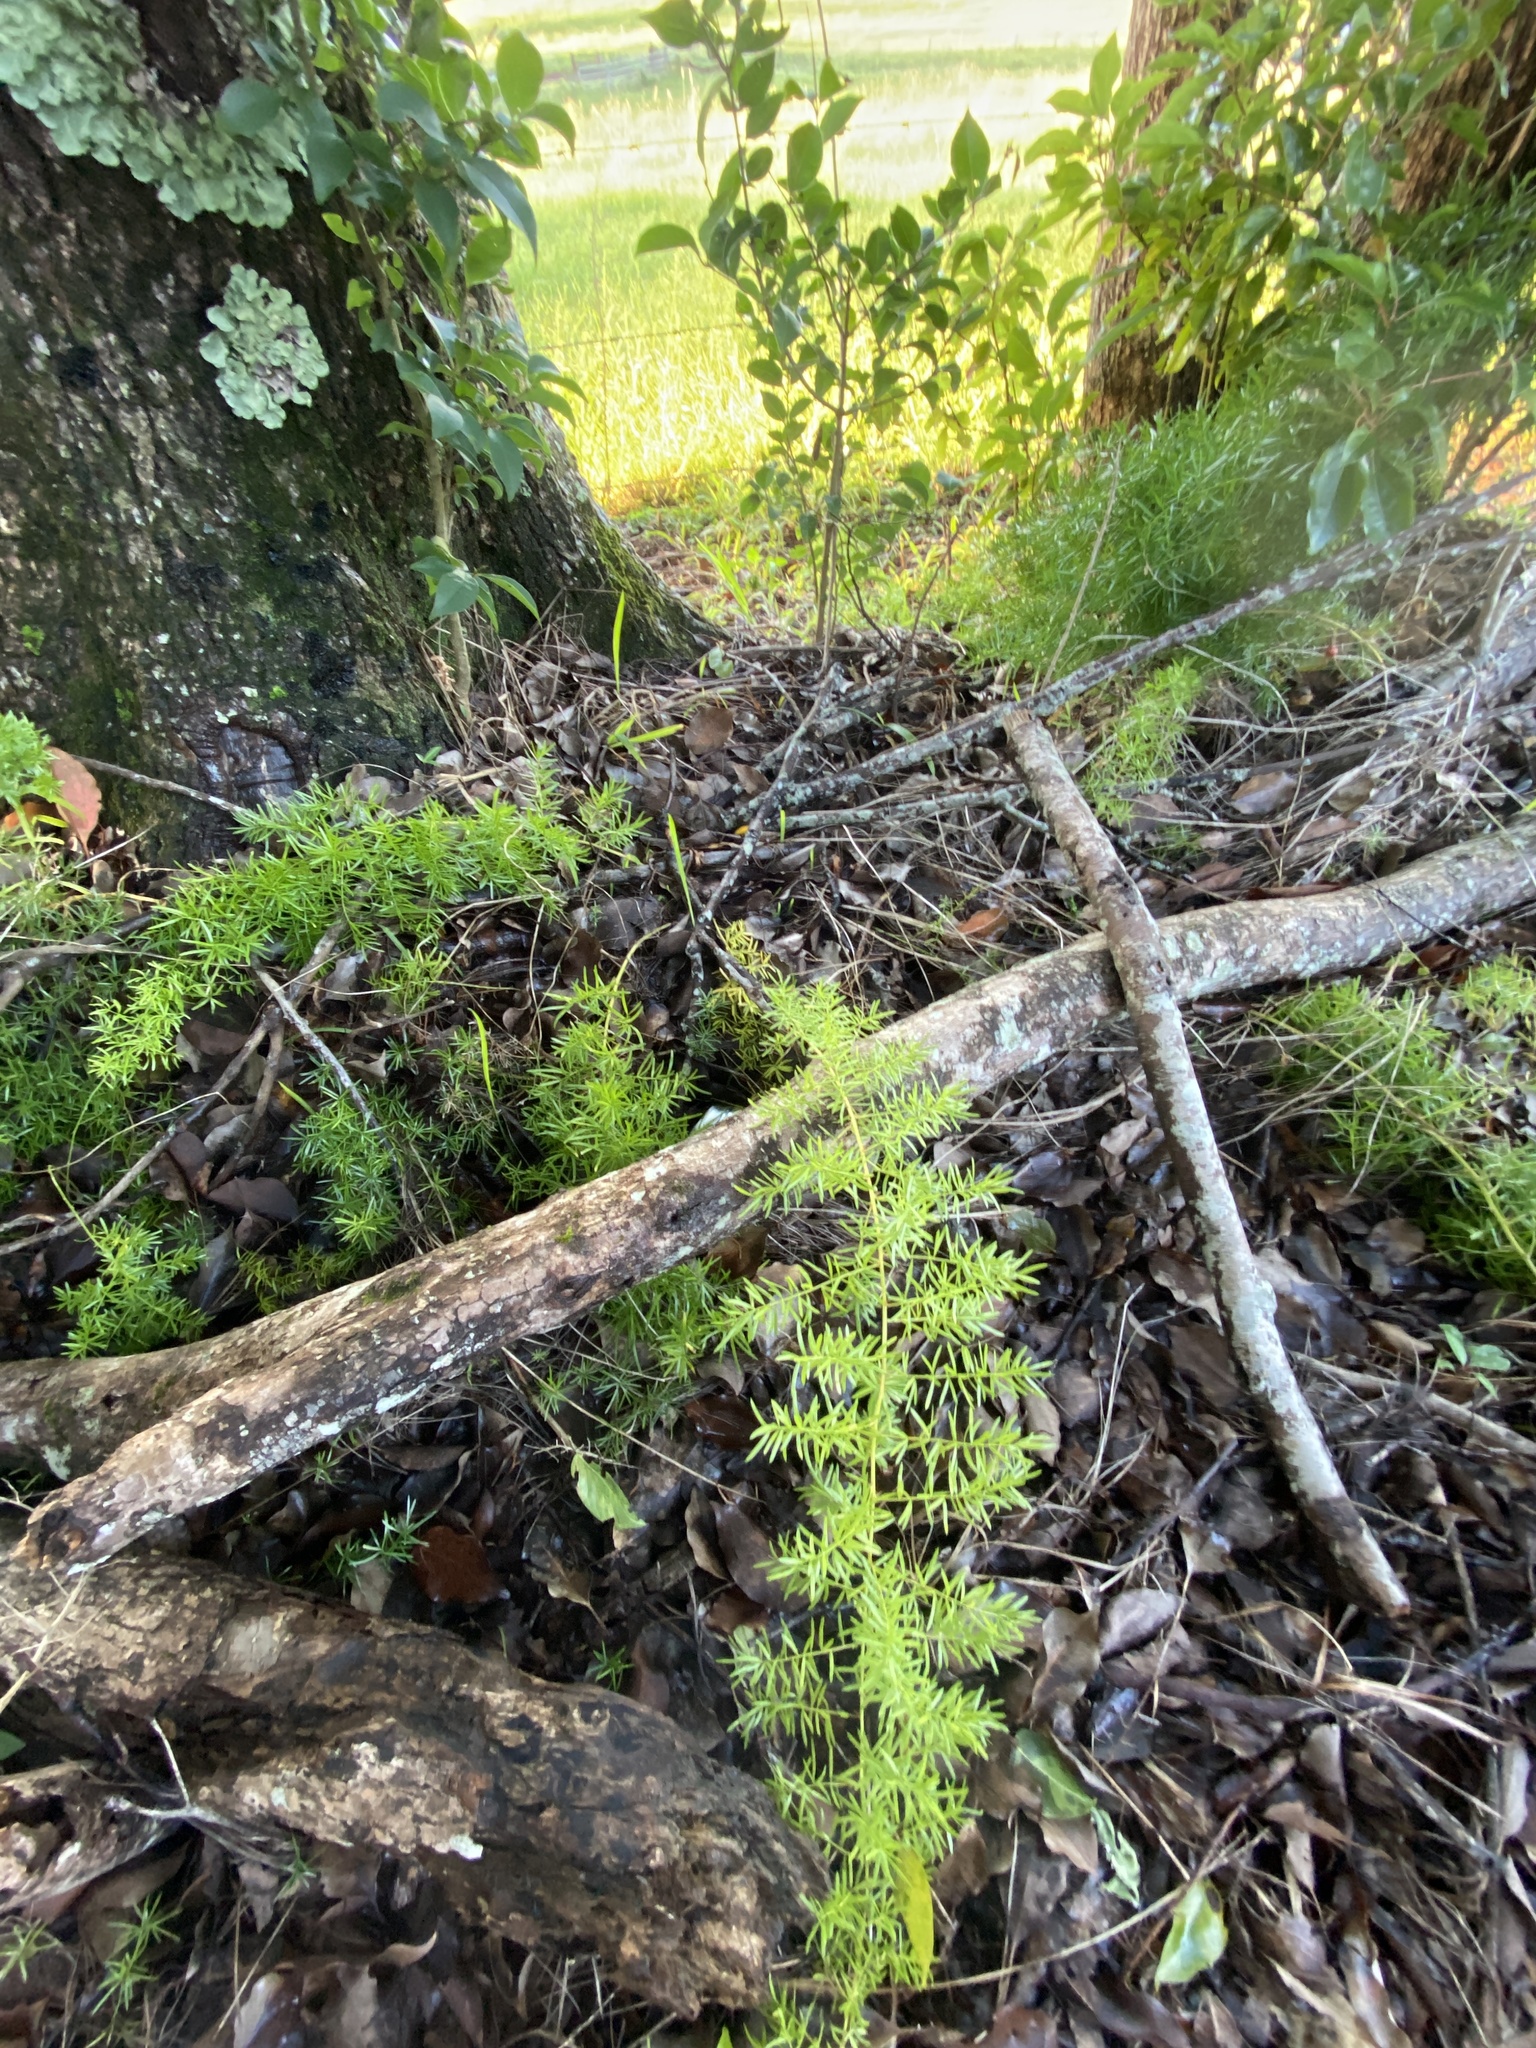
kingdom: Plantae
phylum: Tracheophyta
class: Liliopsida
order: Asparagales
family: Asparagaceae
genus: Asparagus
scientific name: Asparagus aethiopicus
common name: Sprenger's asparagus fern
